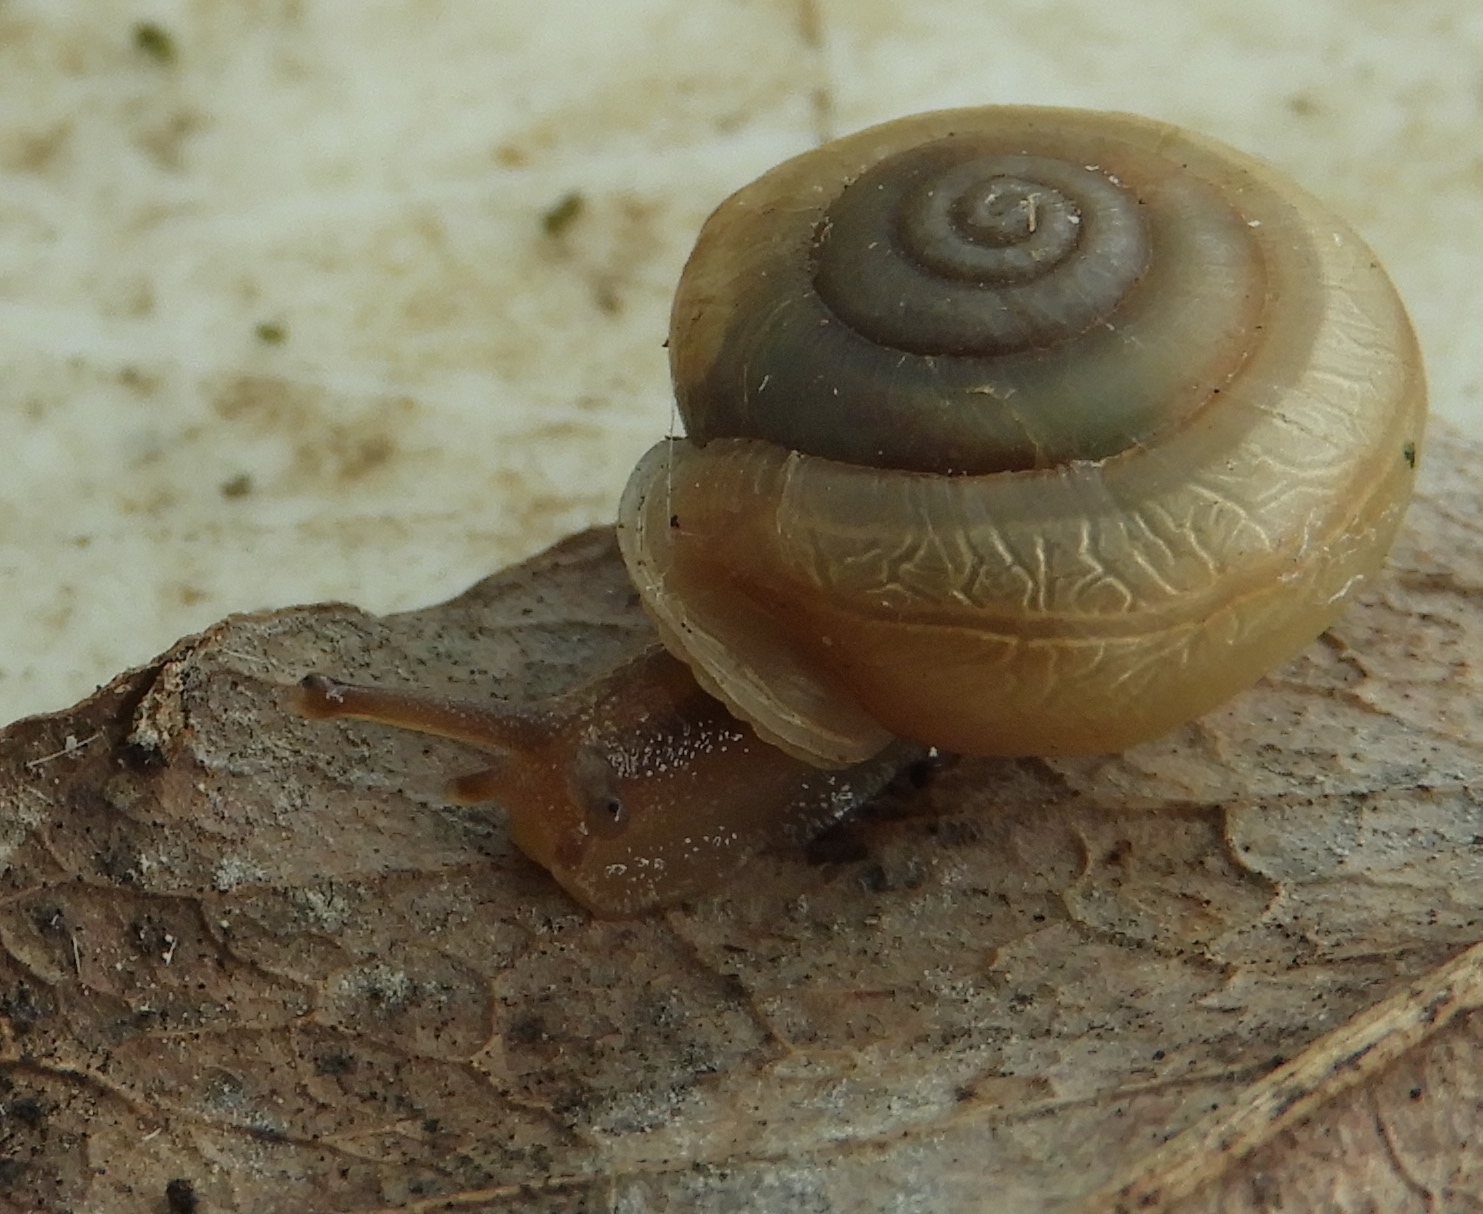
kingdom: Animalia
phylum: Mollusca
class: Gastropoda
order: Stylommatophora
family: Polygyridae
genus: Linisa
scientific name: Linisa
